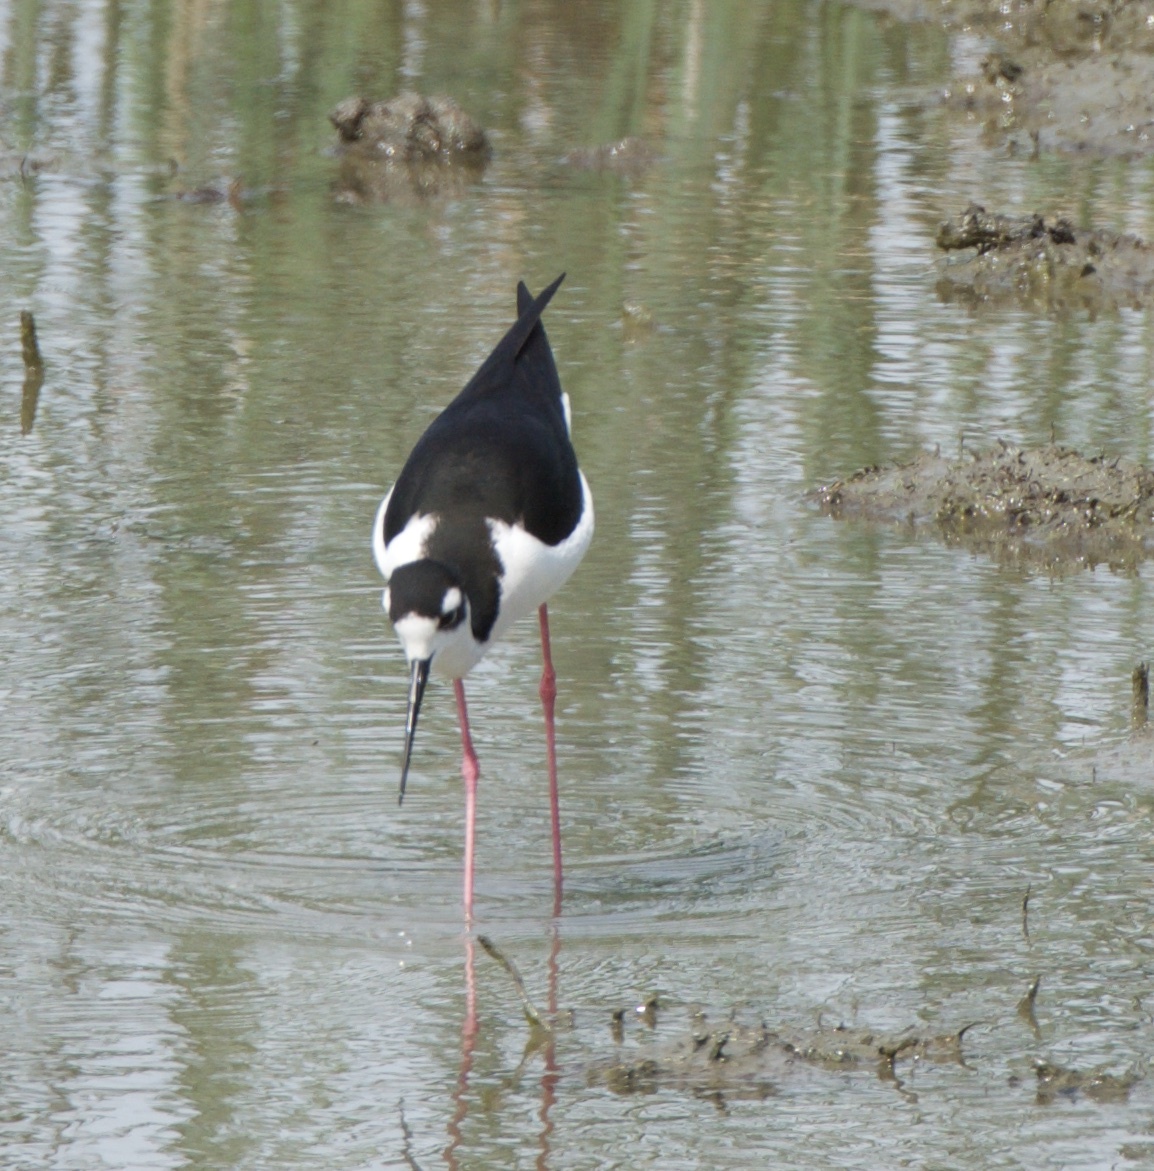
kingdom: Animalia
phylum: Chordata
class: Aves
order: Charadriiformes
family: Recurvirostridae
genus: Himantopus
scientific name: Himantopus mexicanus
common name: Black-necked stilt
